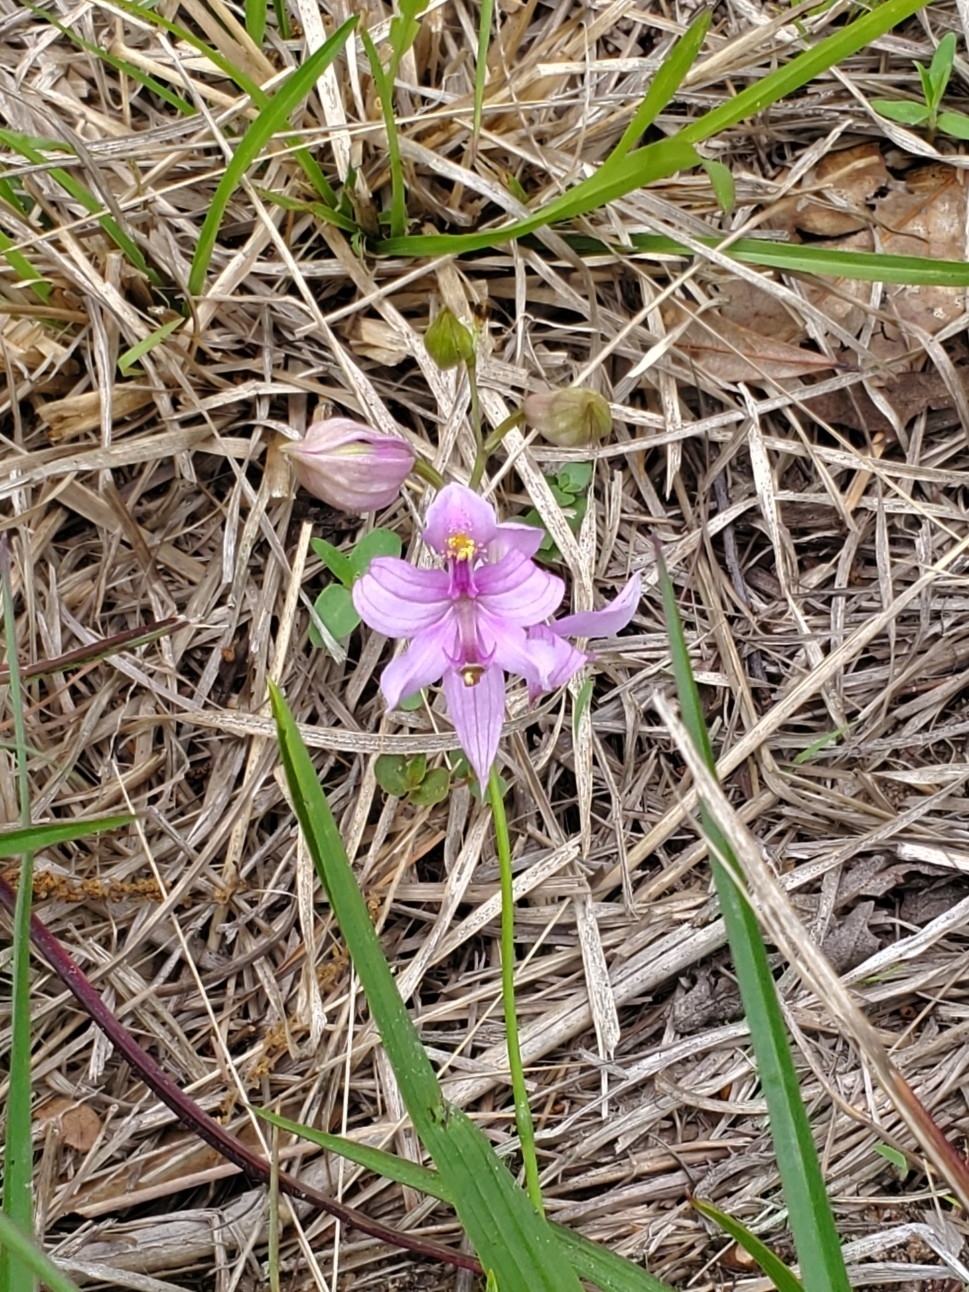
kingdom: Plantae
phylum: Tracheophyta
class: Liliopsida
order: Asparagales
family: Orchidaceae
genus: Calopogon
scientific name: Calopogon oklahomensis
